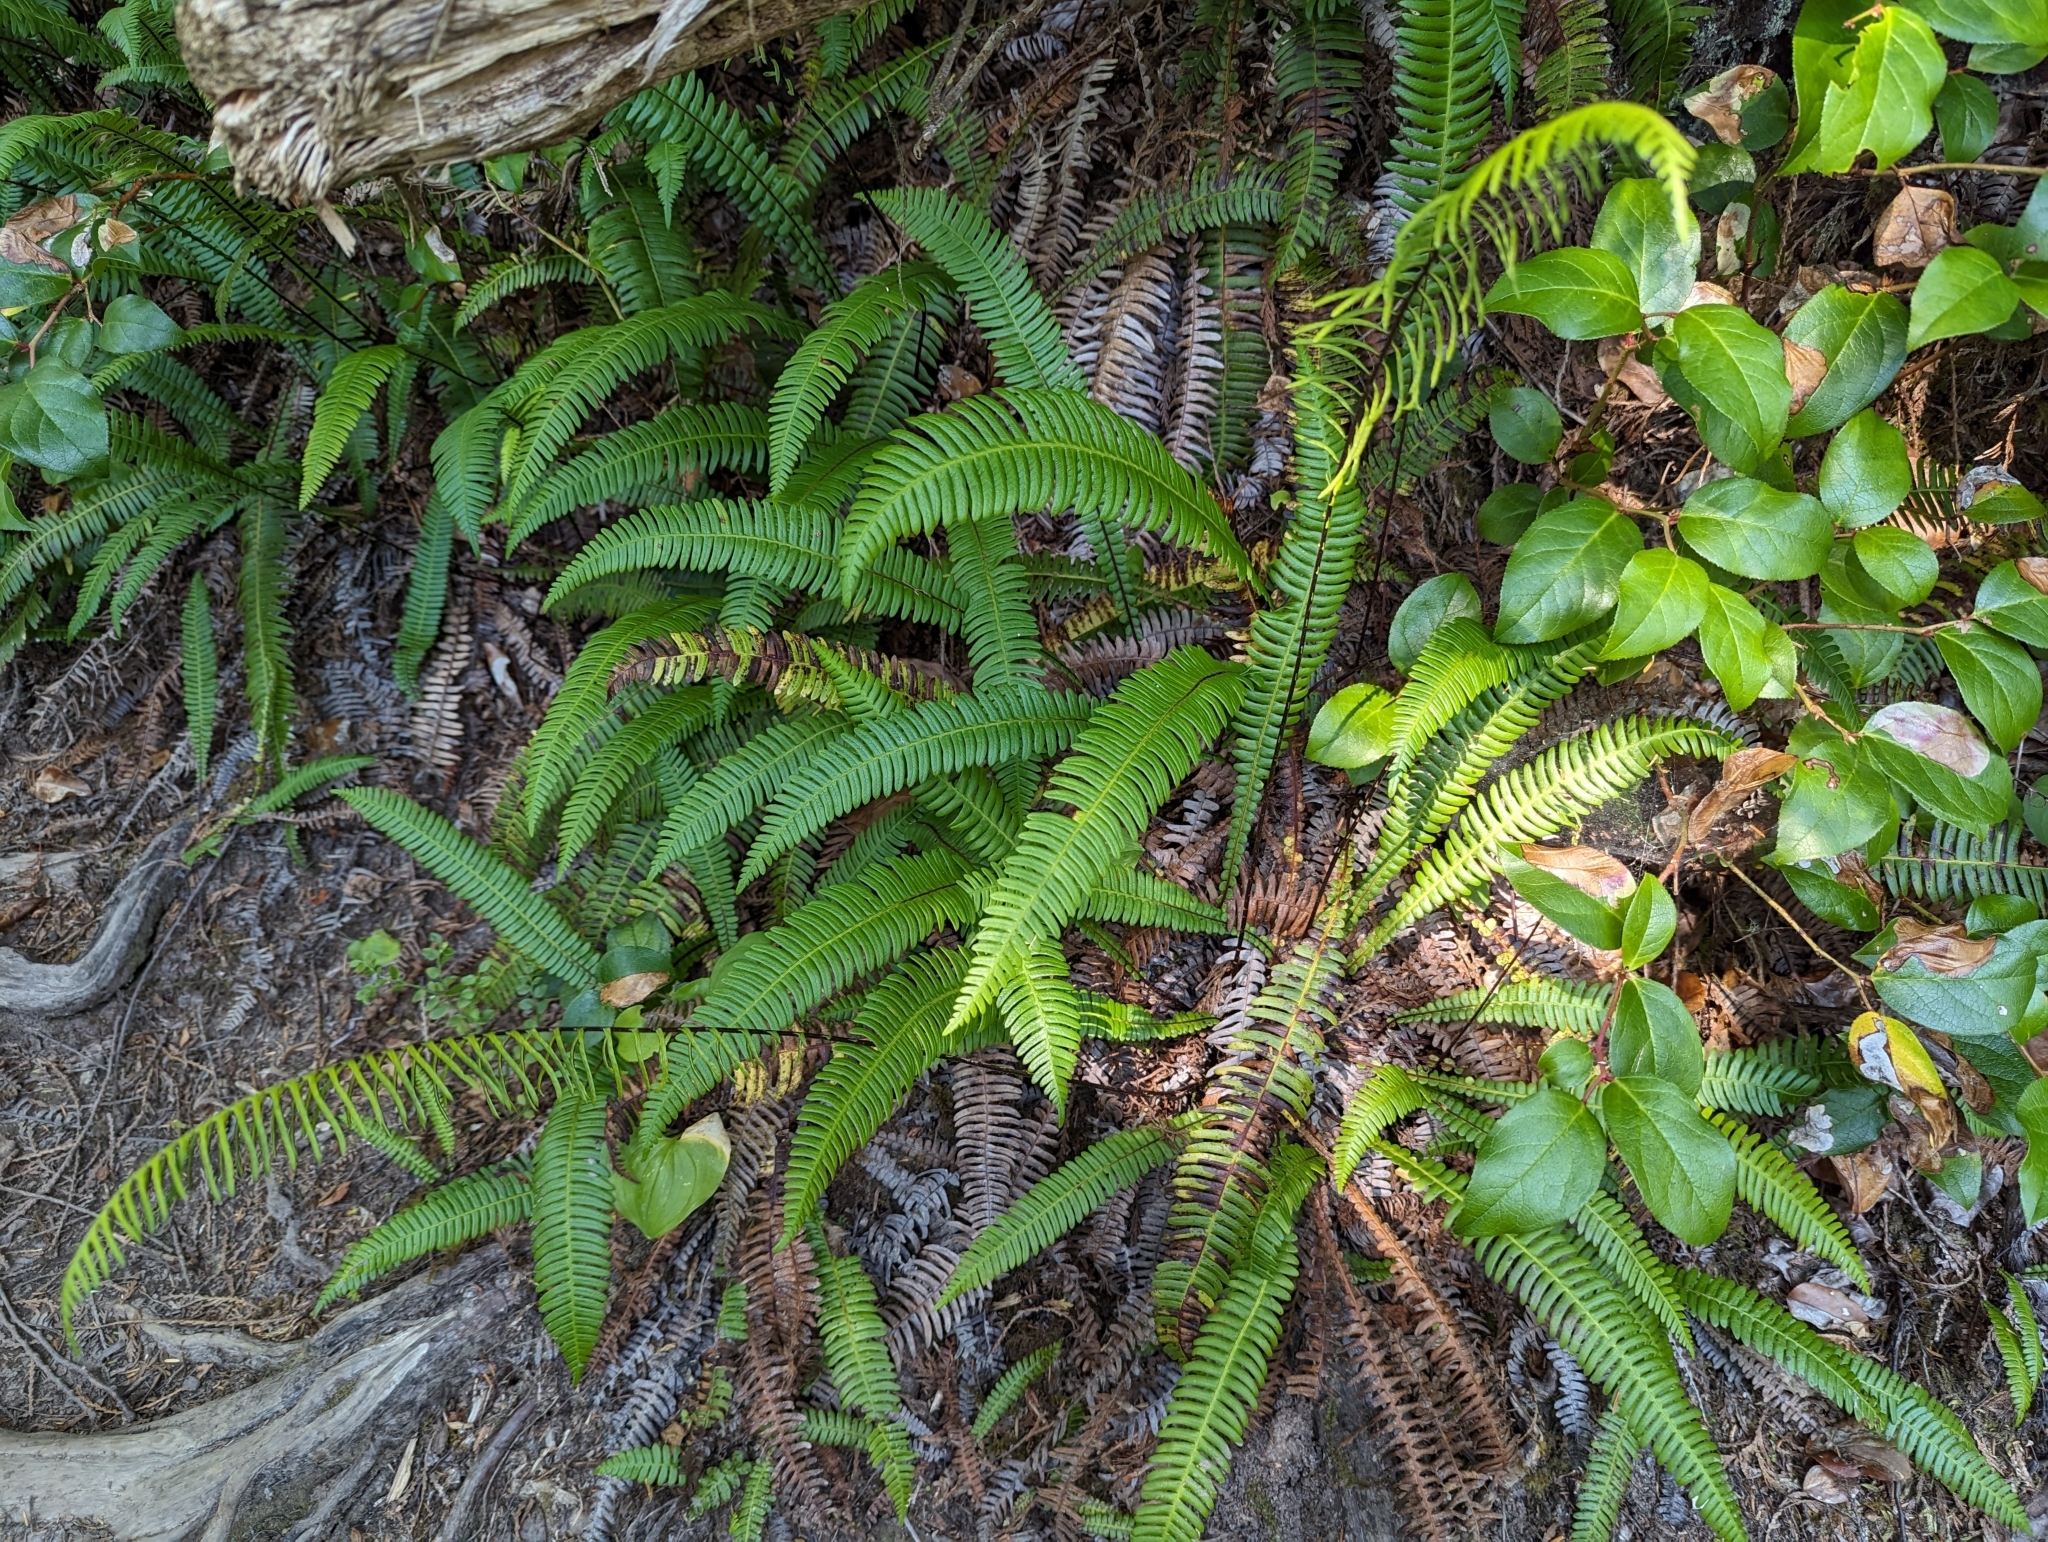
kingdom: Plantae
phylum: Tracheophyta
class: Polypodiopsida
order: Polypodiales
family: Blechnaceae
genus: Struthiopteris
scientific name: Struthiopteris spicant
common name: Deer fern
